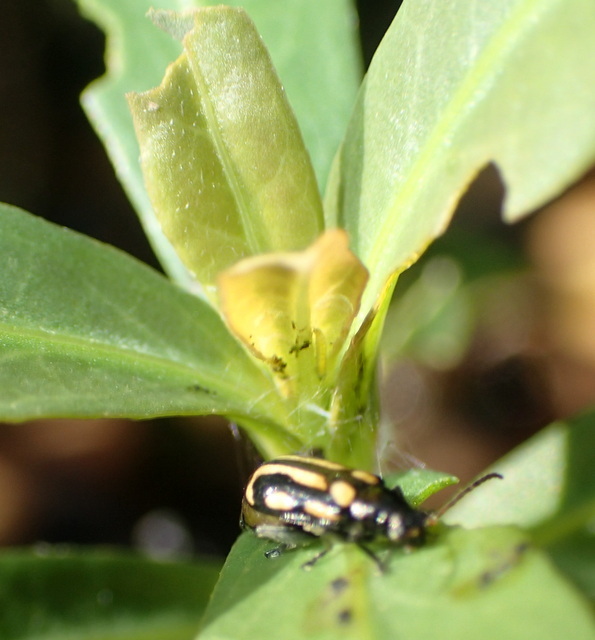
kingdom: Animalia
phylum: Arthropoda
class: Insecta
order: Coleoptera
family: Chrysomelidae
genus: Agasicles
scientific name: Agasicles hygrophila
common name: Alligatorweed flea beetle
